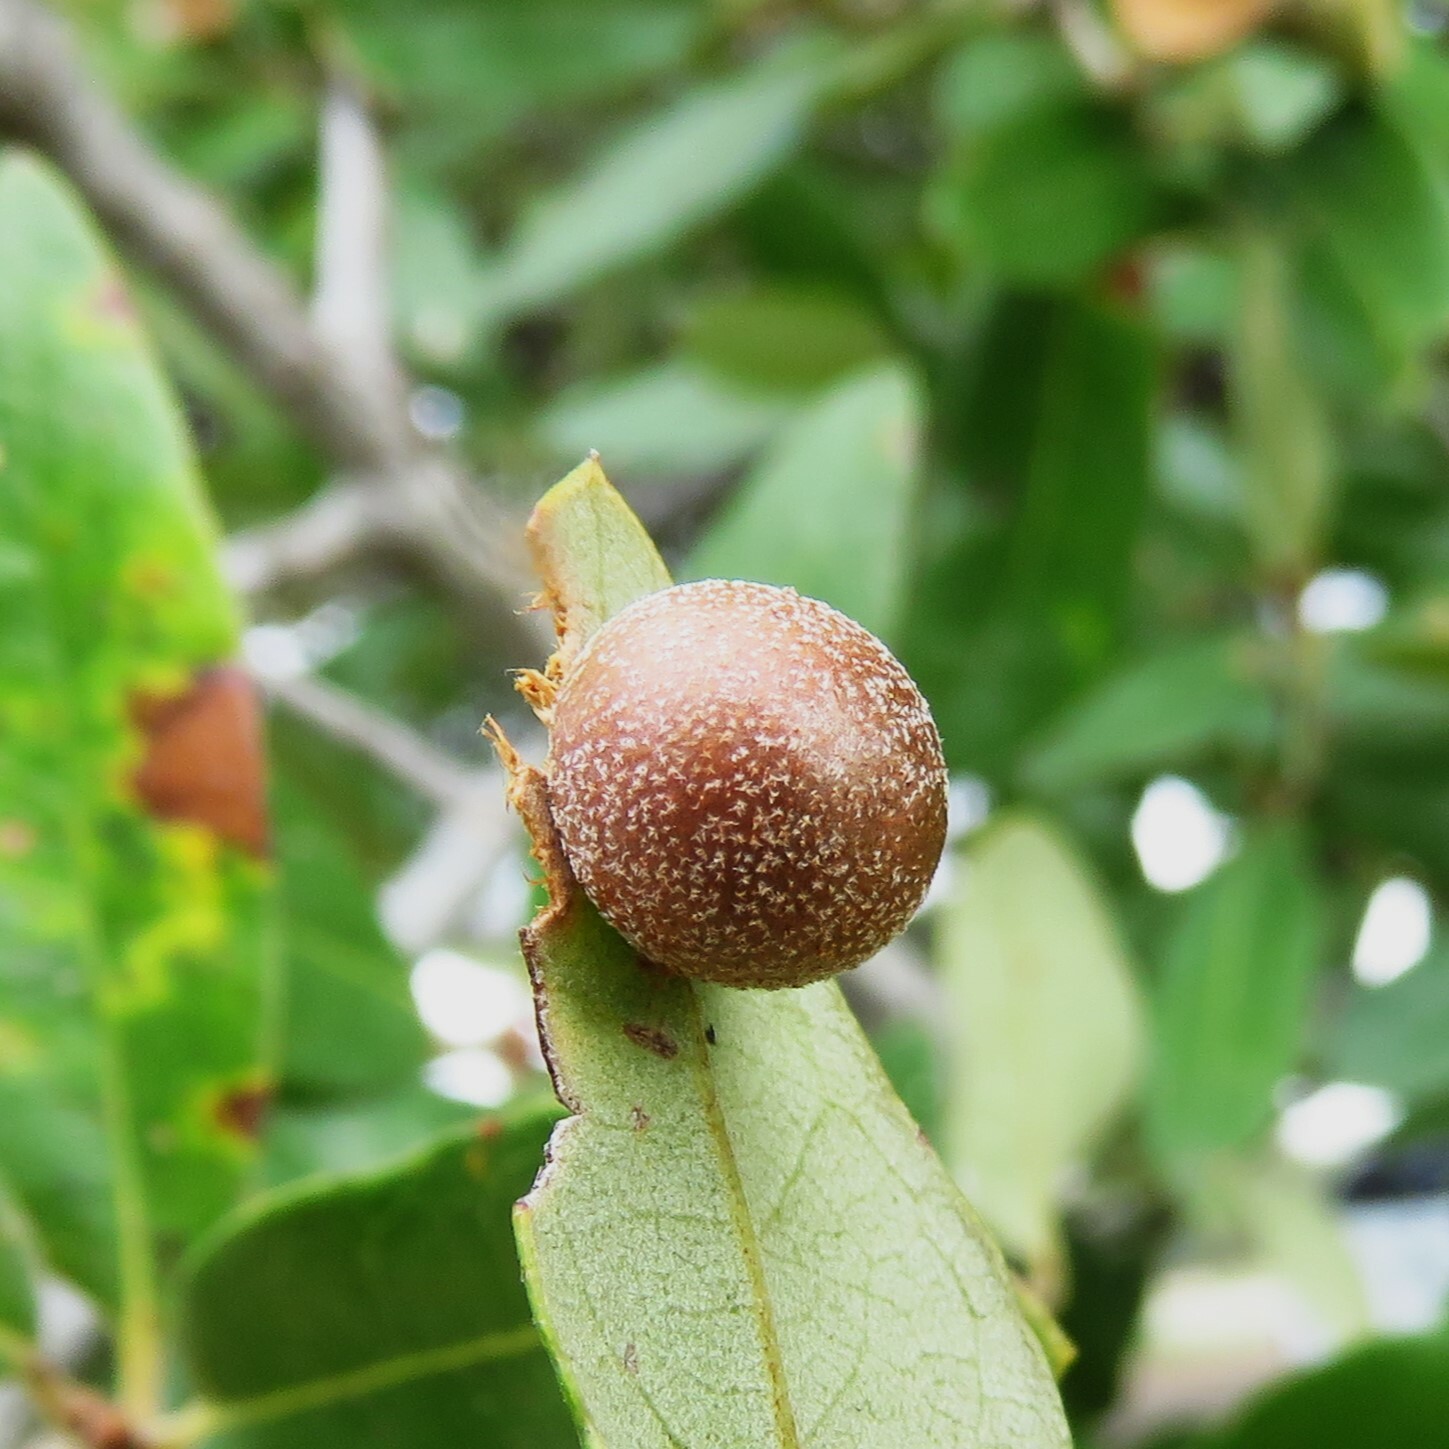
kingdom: Animalia
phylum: Arthropoda
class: Insecta
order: Hymenoptera
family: Cynipidae
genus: Belonocnema
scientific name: Belonocnema kinseyi
